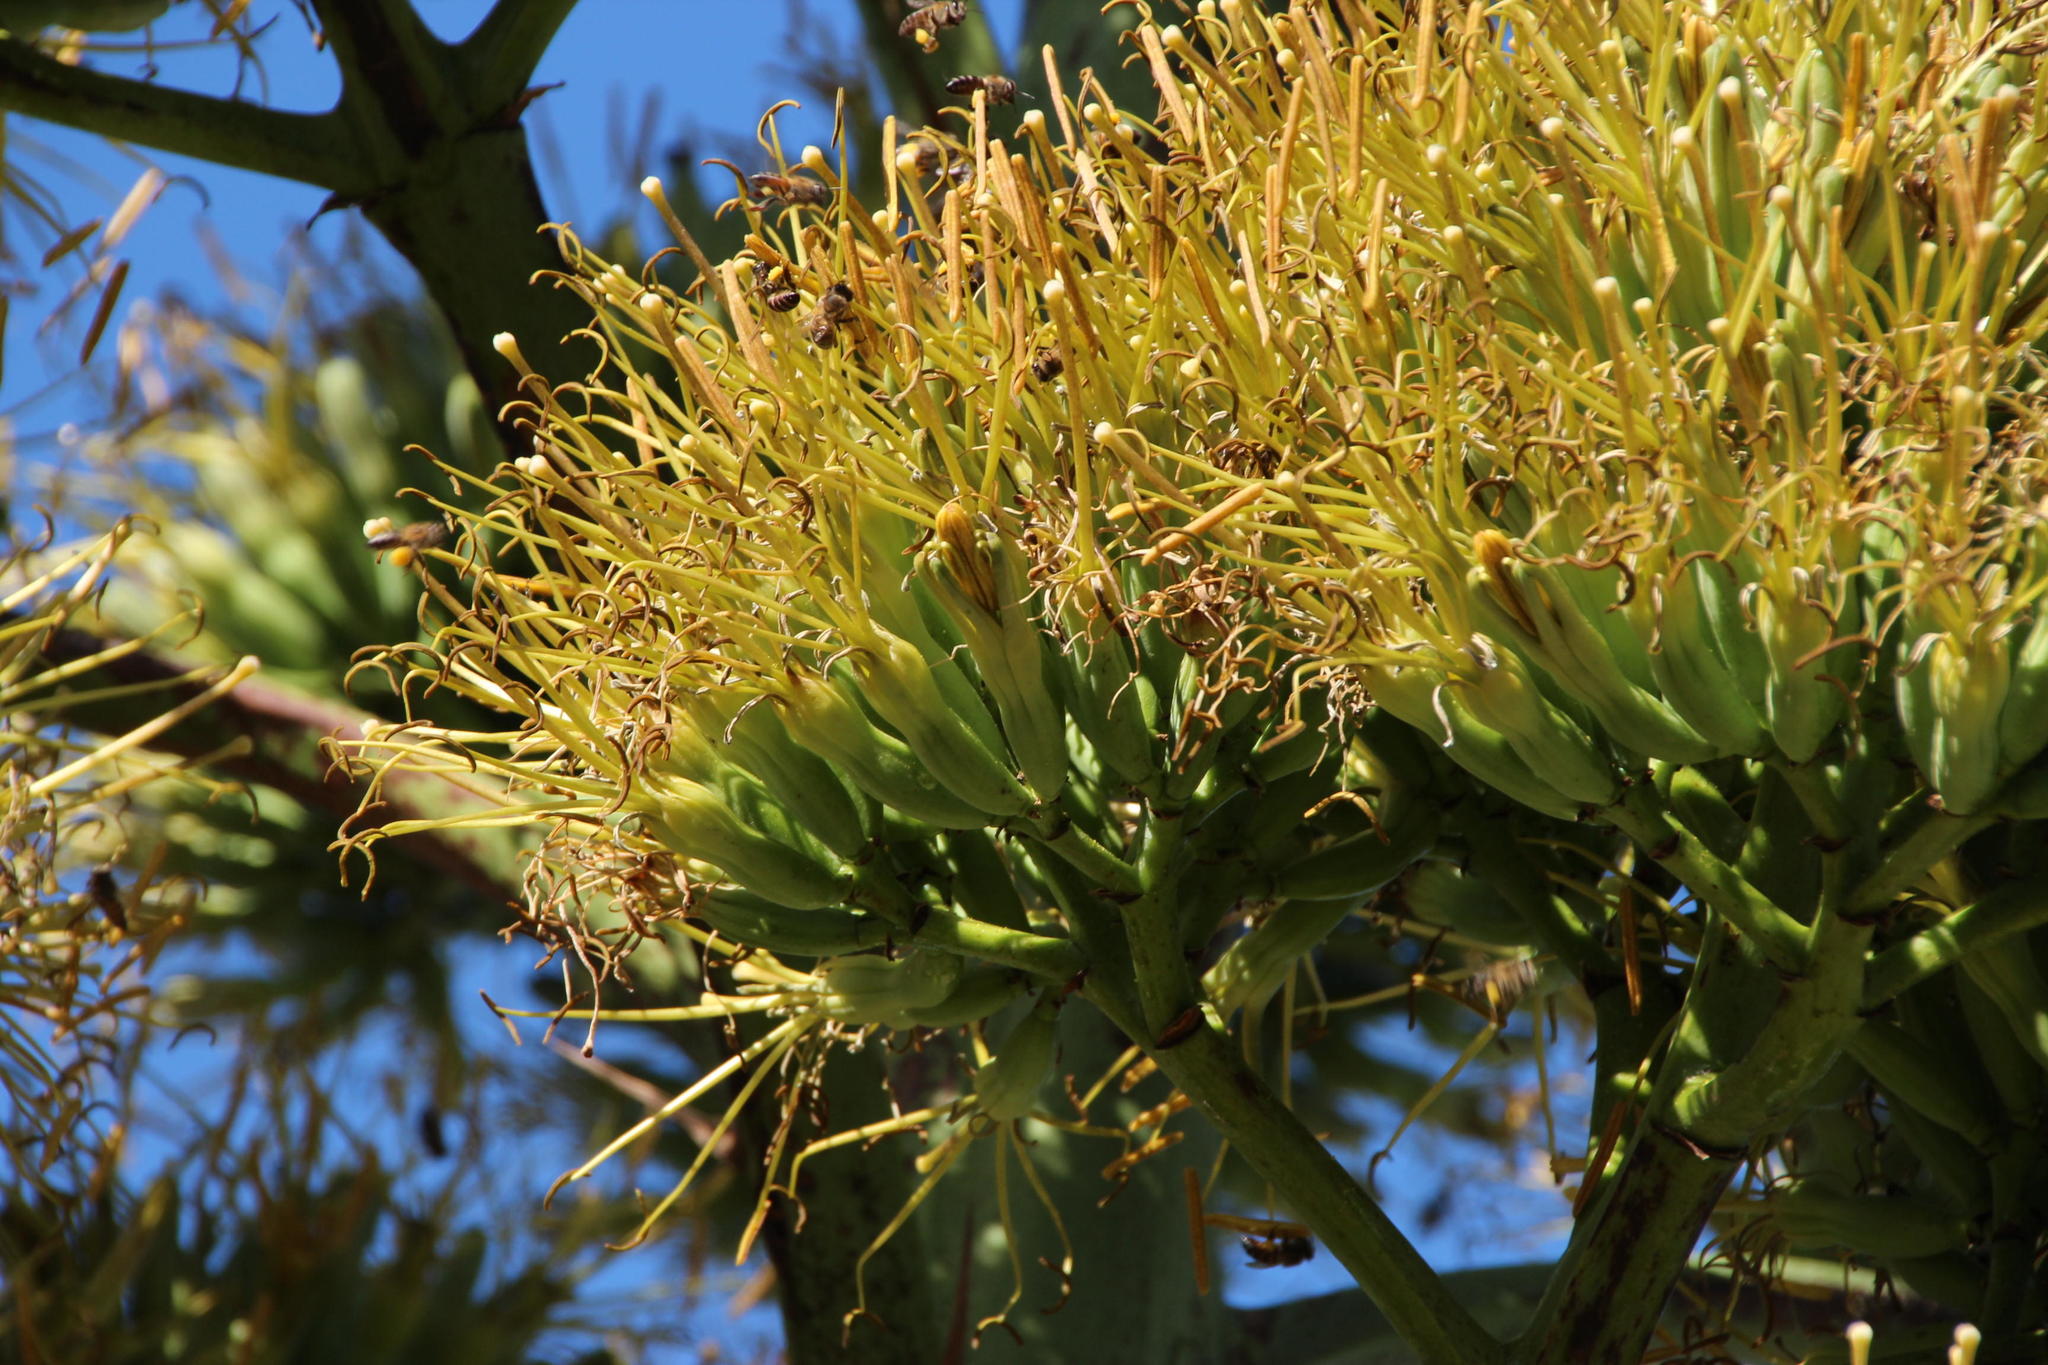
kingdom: Animalia
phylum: Arthropoda
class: Insecta
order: Hymenoptera
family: Apidae
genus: Apis
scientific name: Apis mellifera
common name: Honey bee
